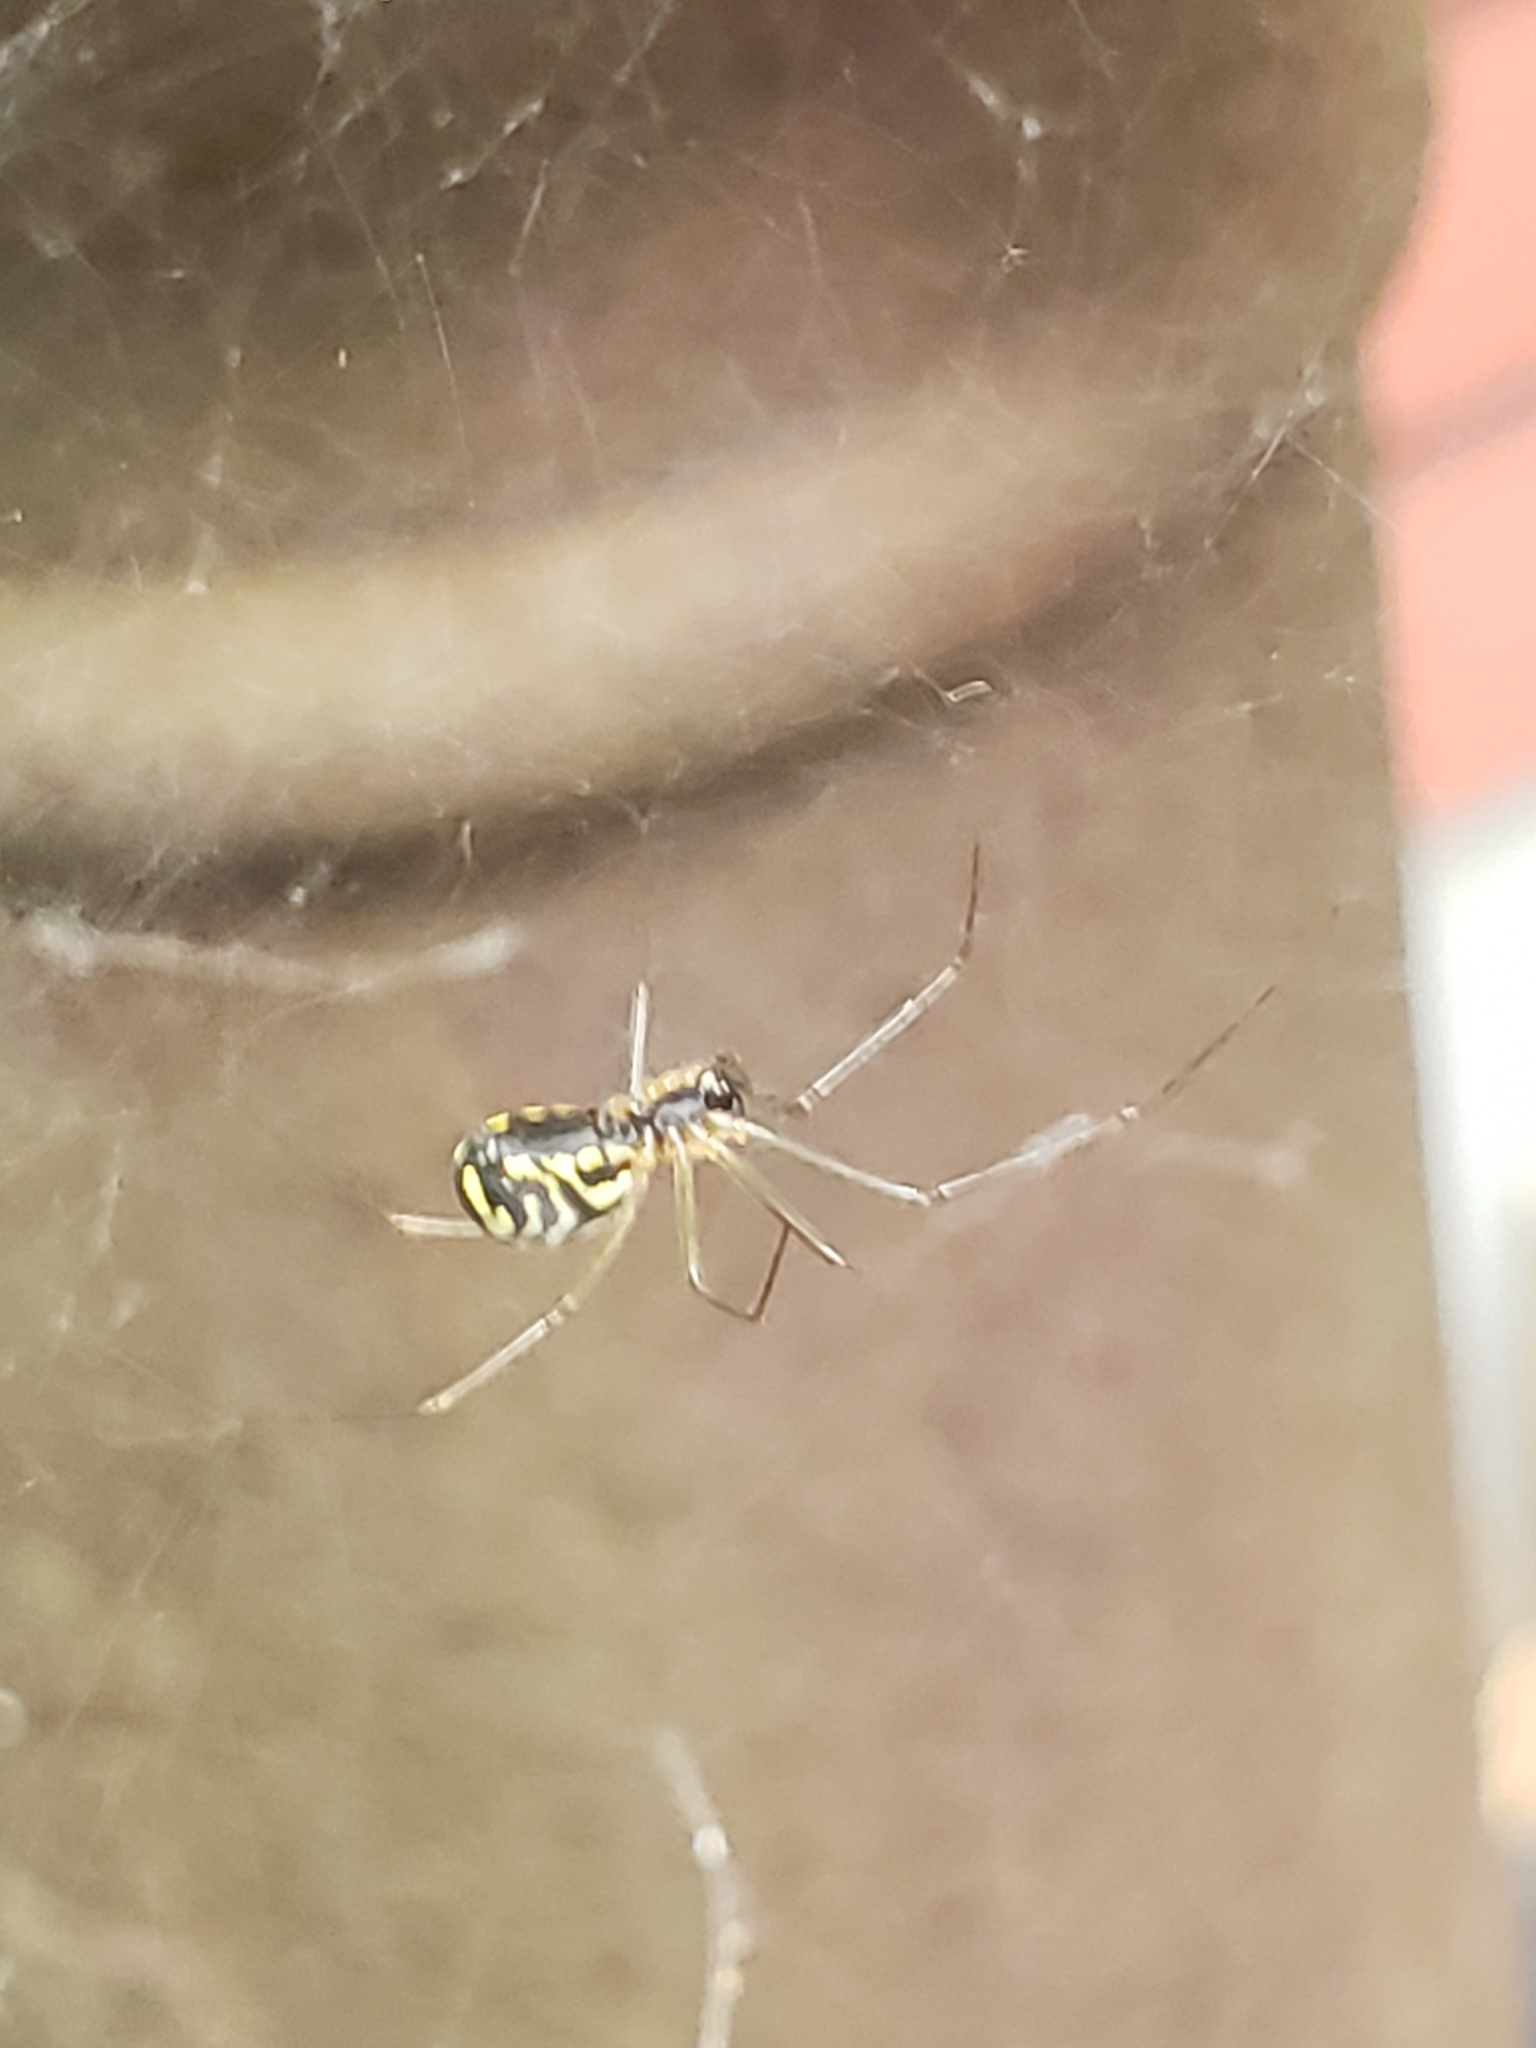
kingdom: Animalia
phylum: Arthropoda
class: Arachnida
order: Araneae
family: Linyphiidae
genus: Neriene
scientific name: Neriene radiata
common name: Filmy dome spider
